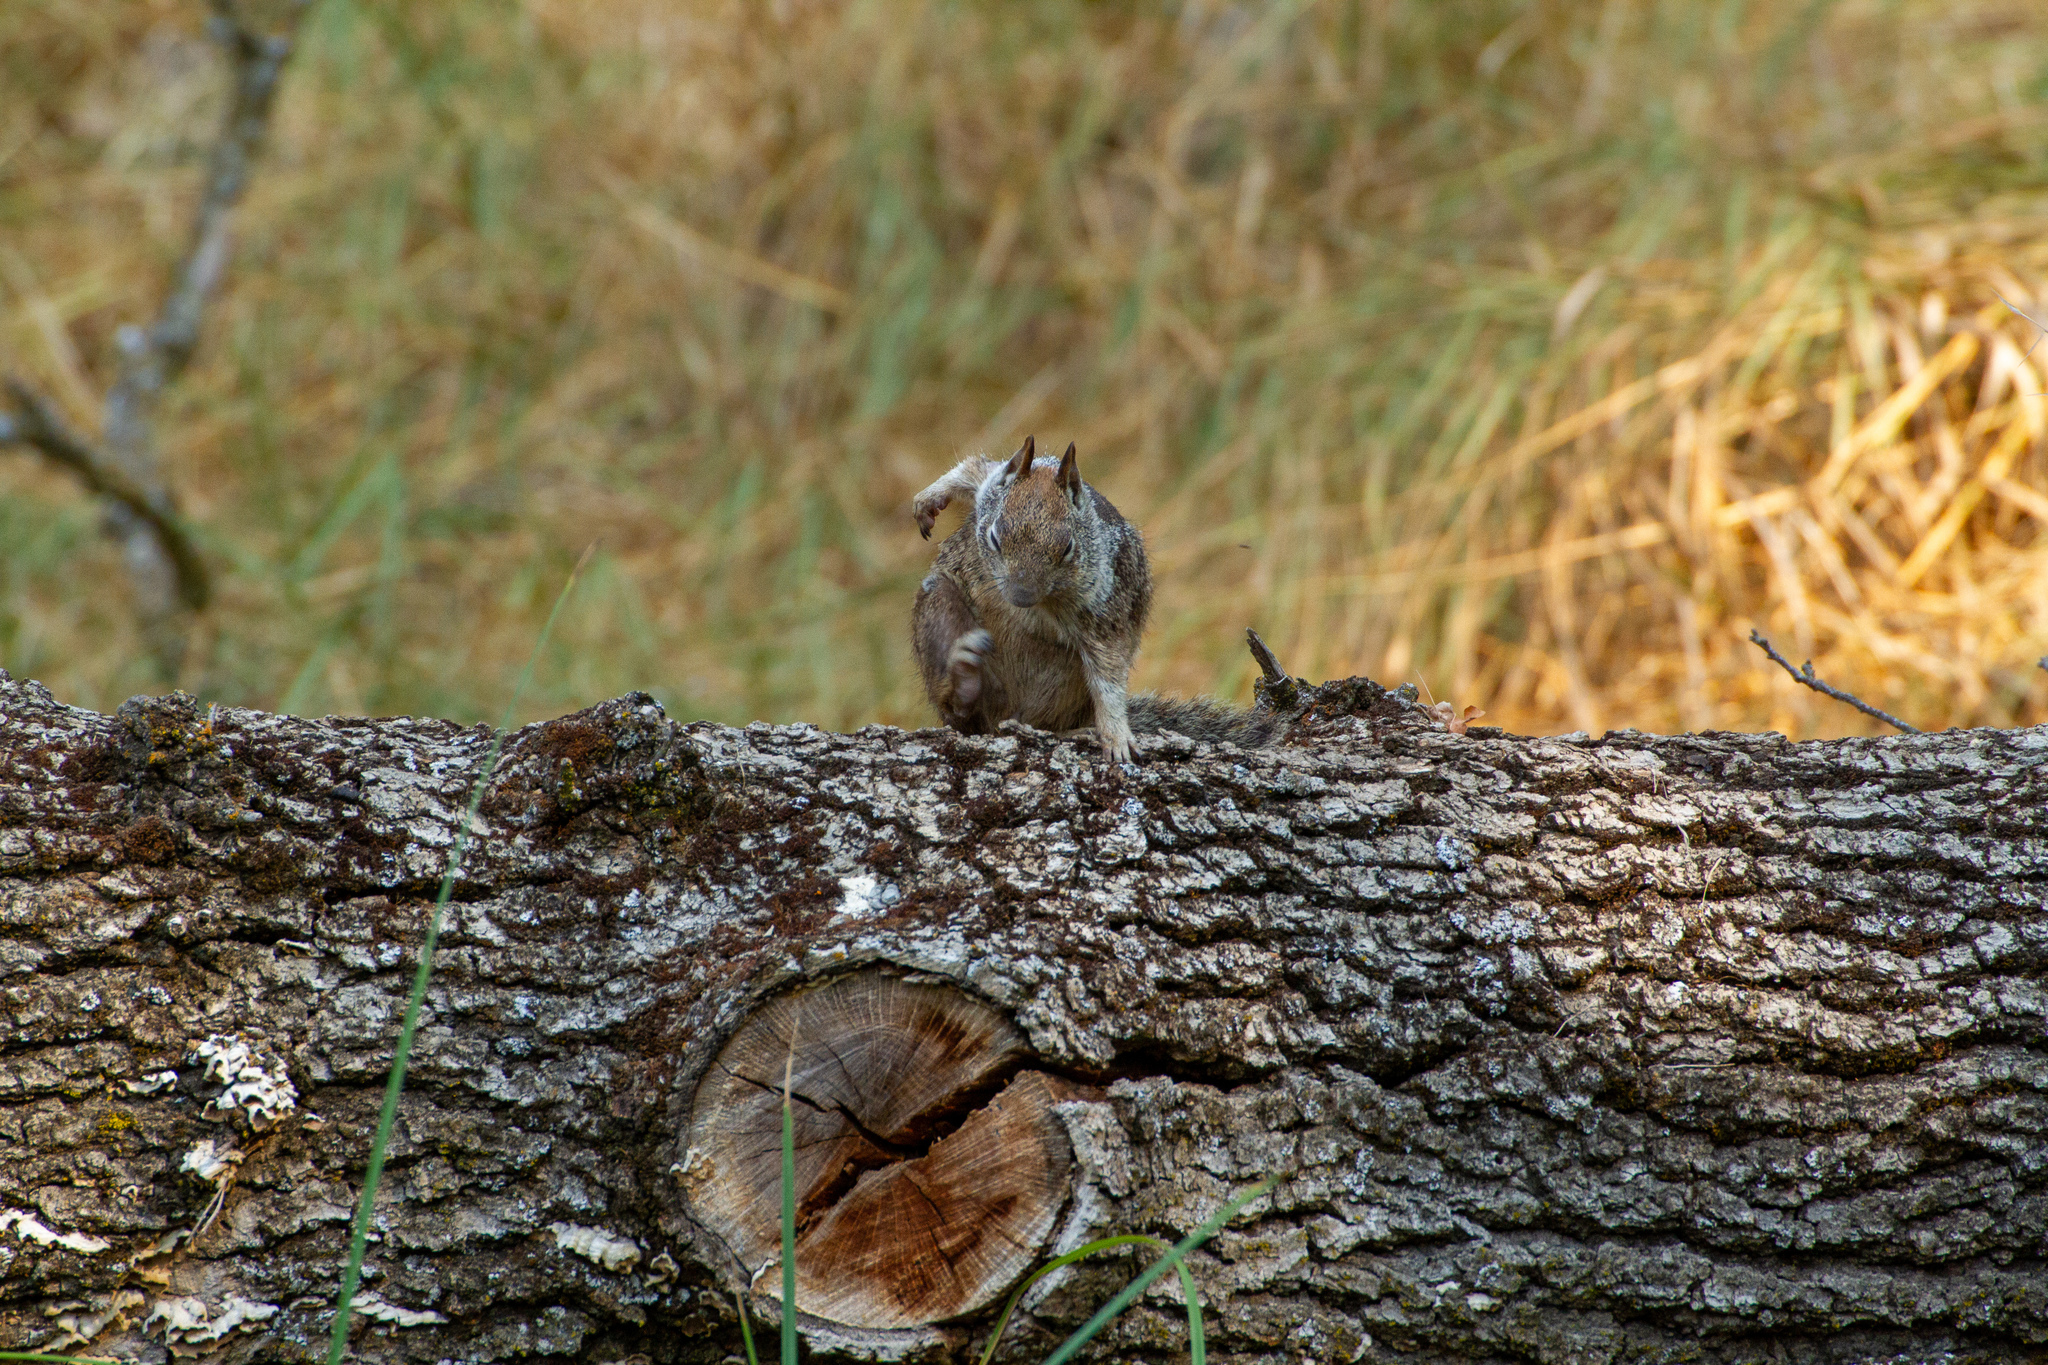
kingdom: Animalia
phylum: Chordata
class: Mammalia
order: Rodentia
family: Sciuridae
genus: Otospermophilus
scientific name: Otospermophilus beecheyi
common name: California ground squirrel
